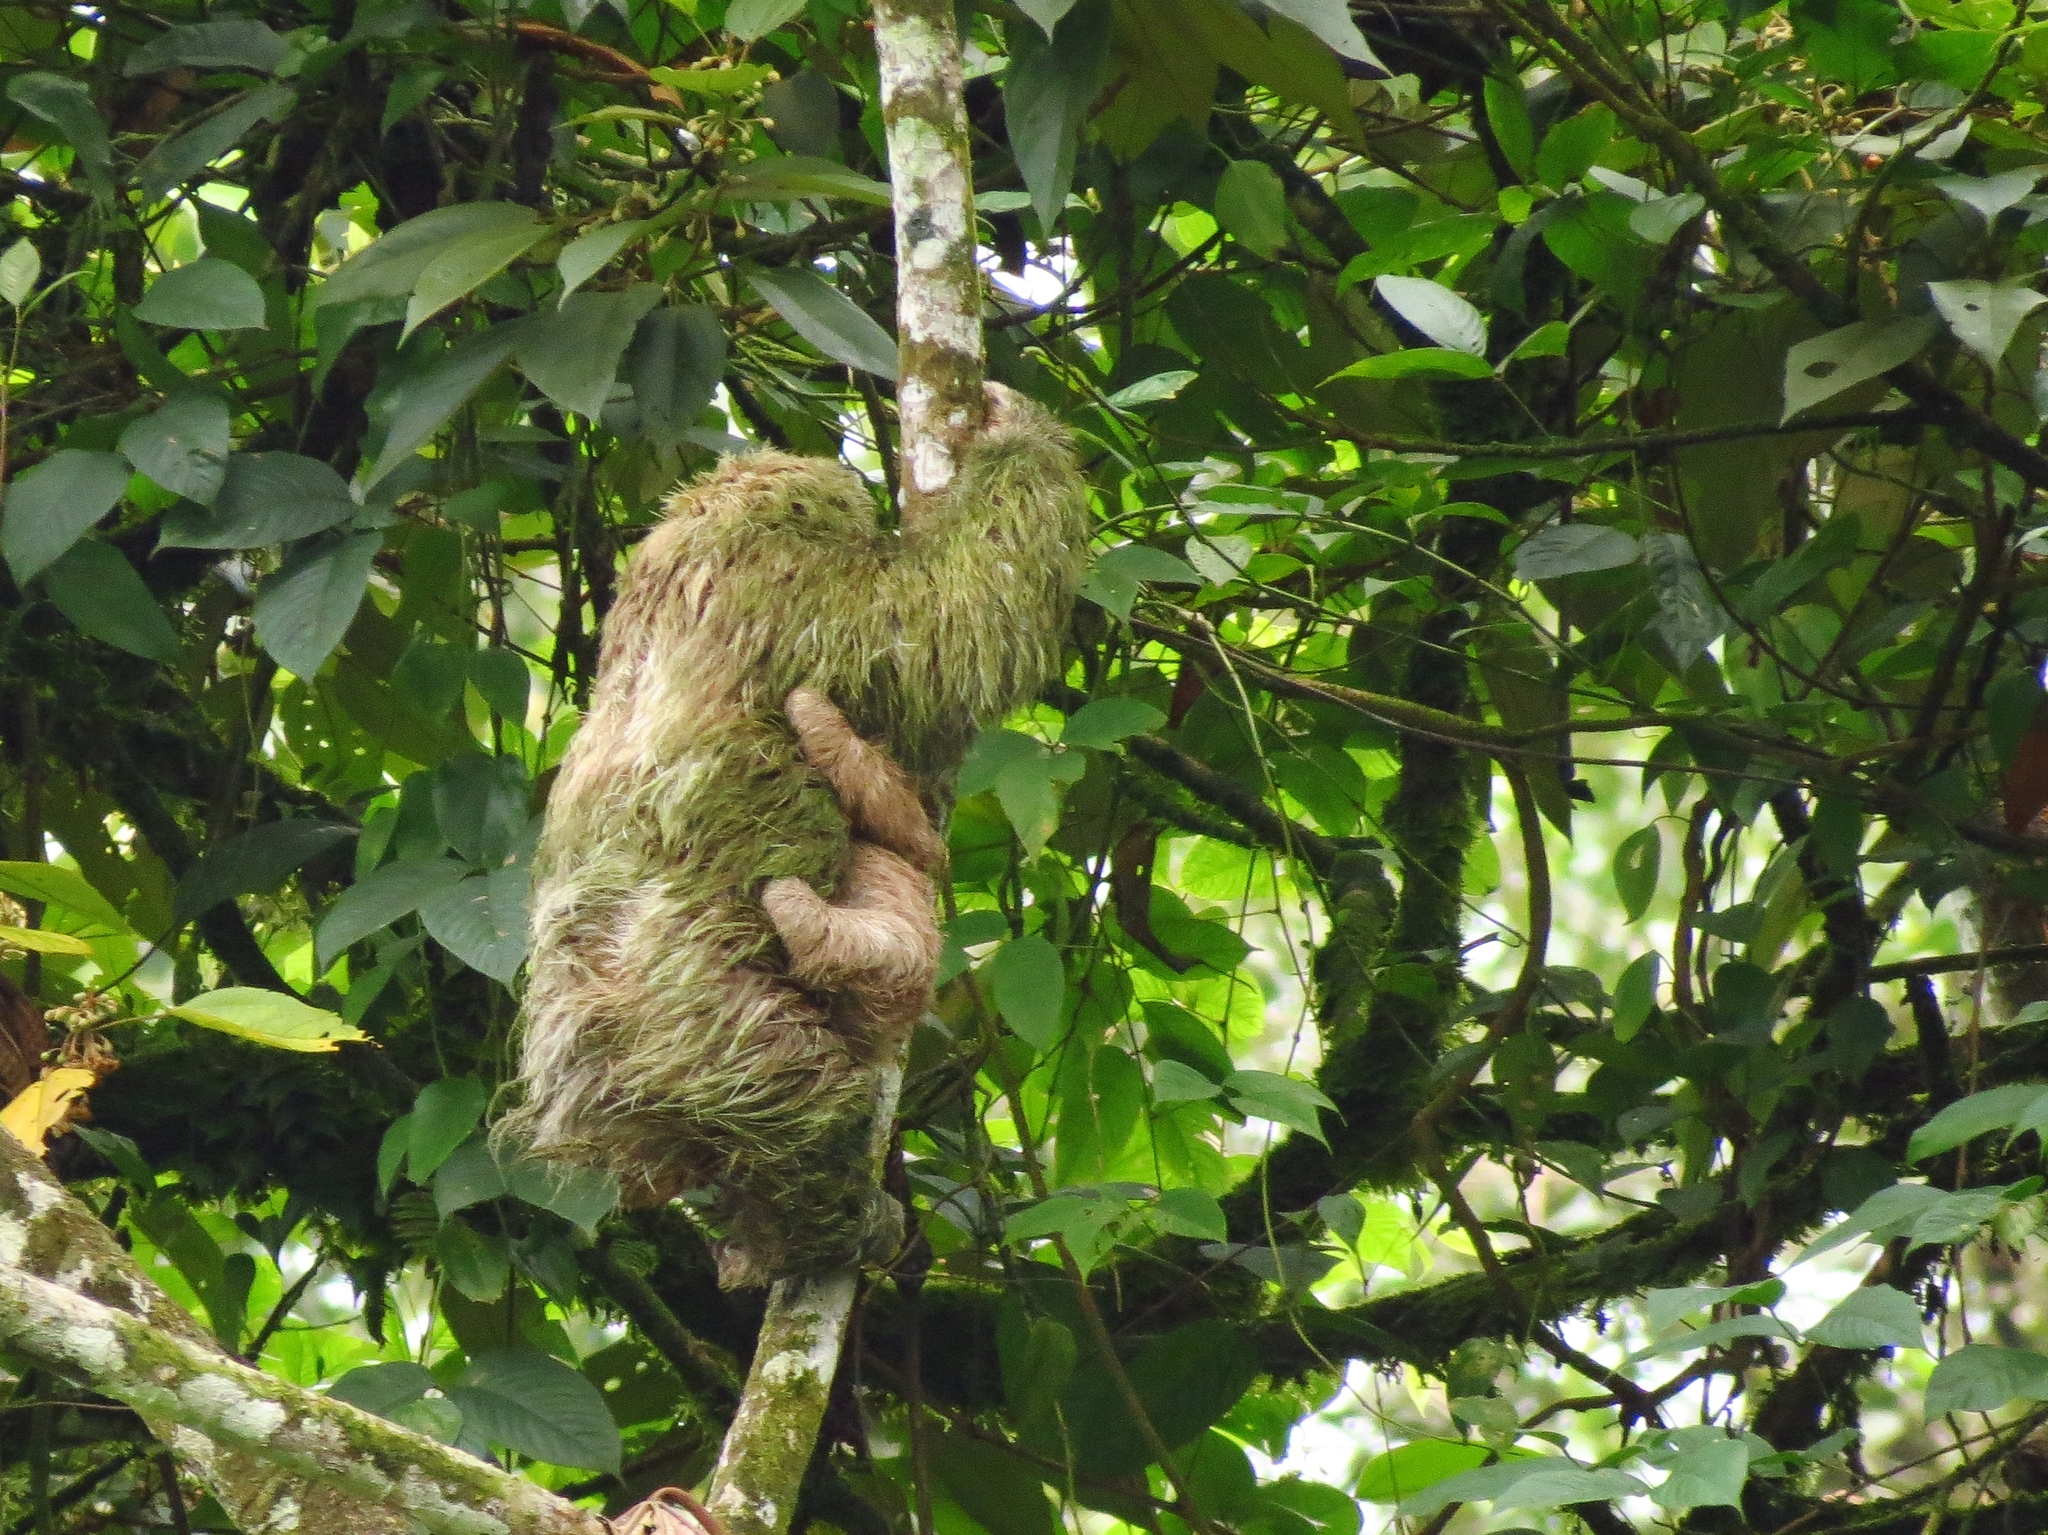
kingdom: Animalia
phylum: Chordata
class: Mammalia
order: Pilosa
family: Bradypodidae
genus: Bradypus
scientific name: Bradypus variegatus
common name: Brown-throated three-toed sloth
